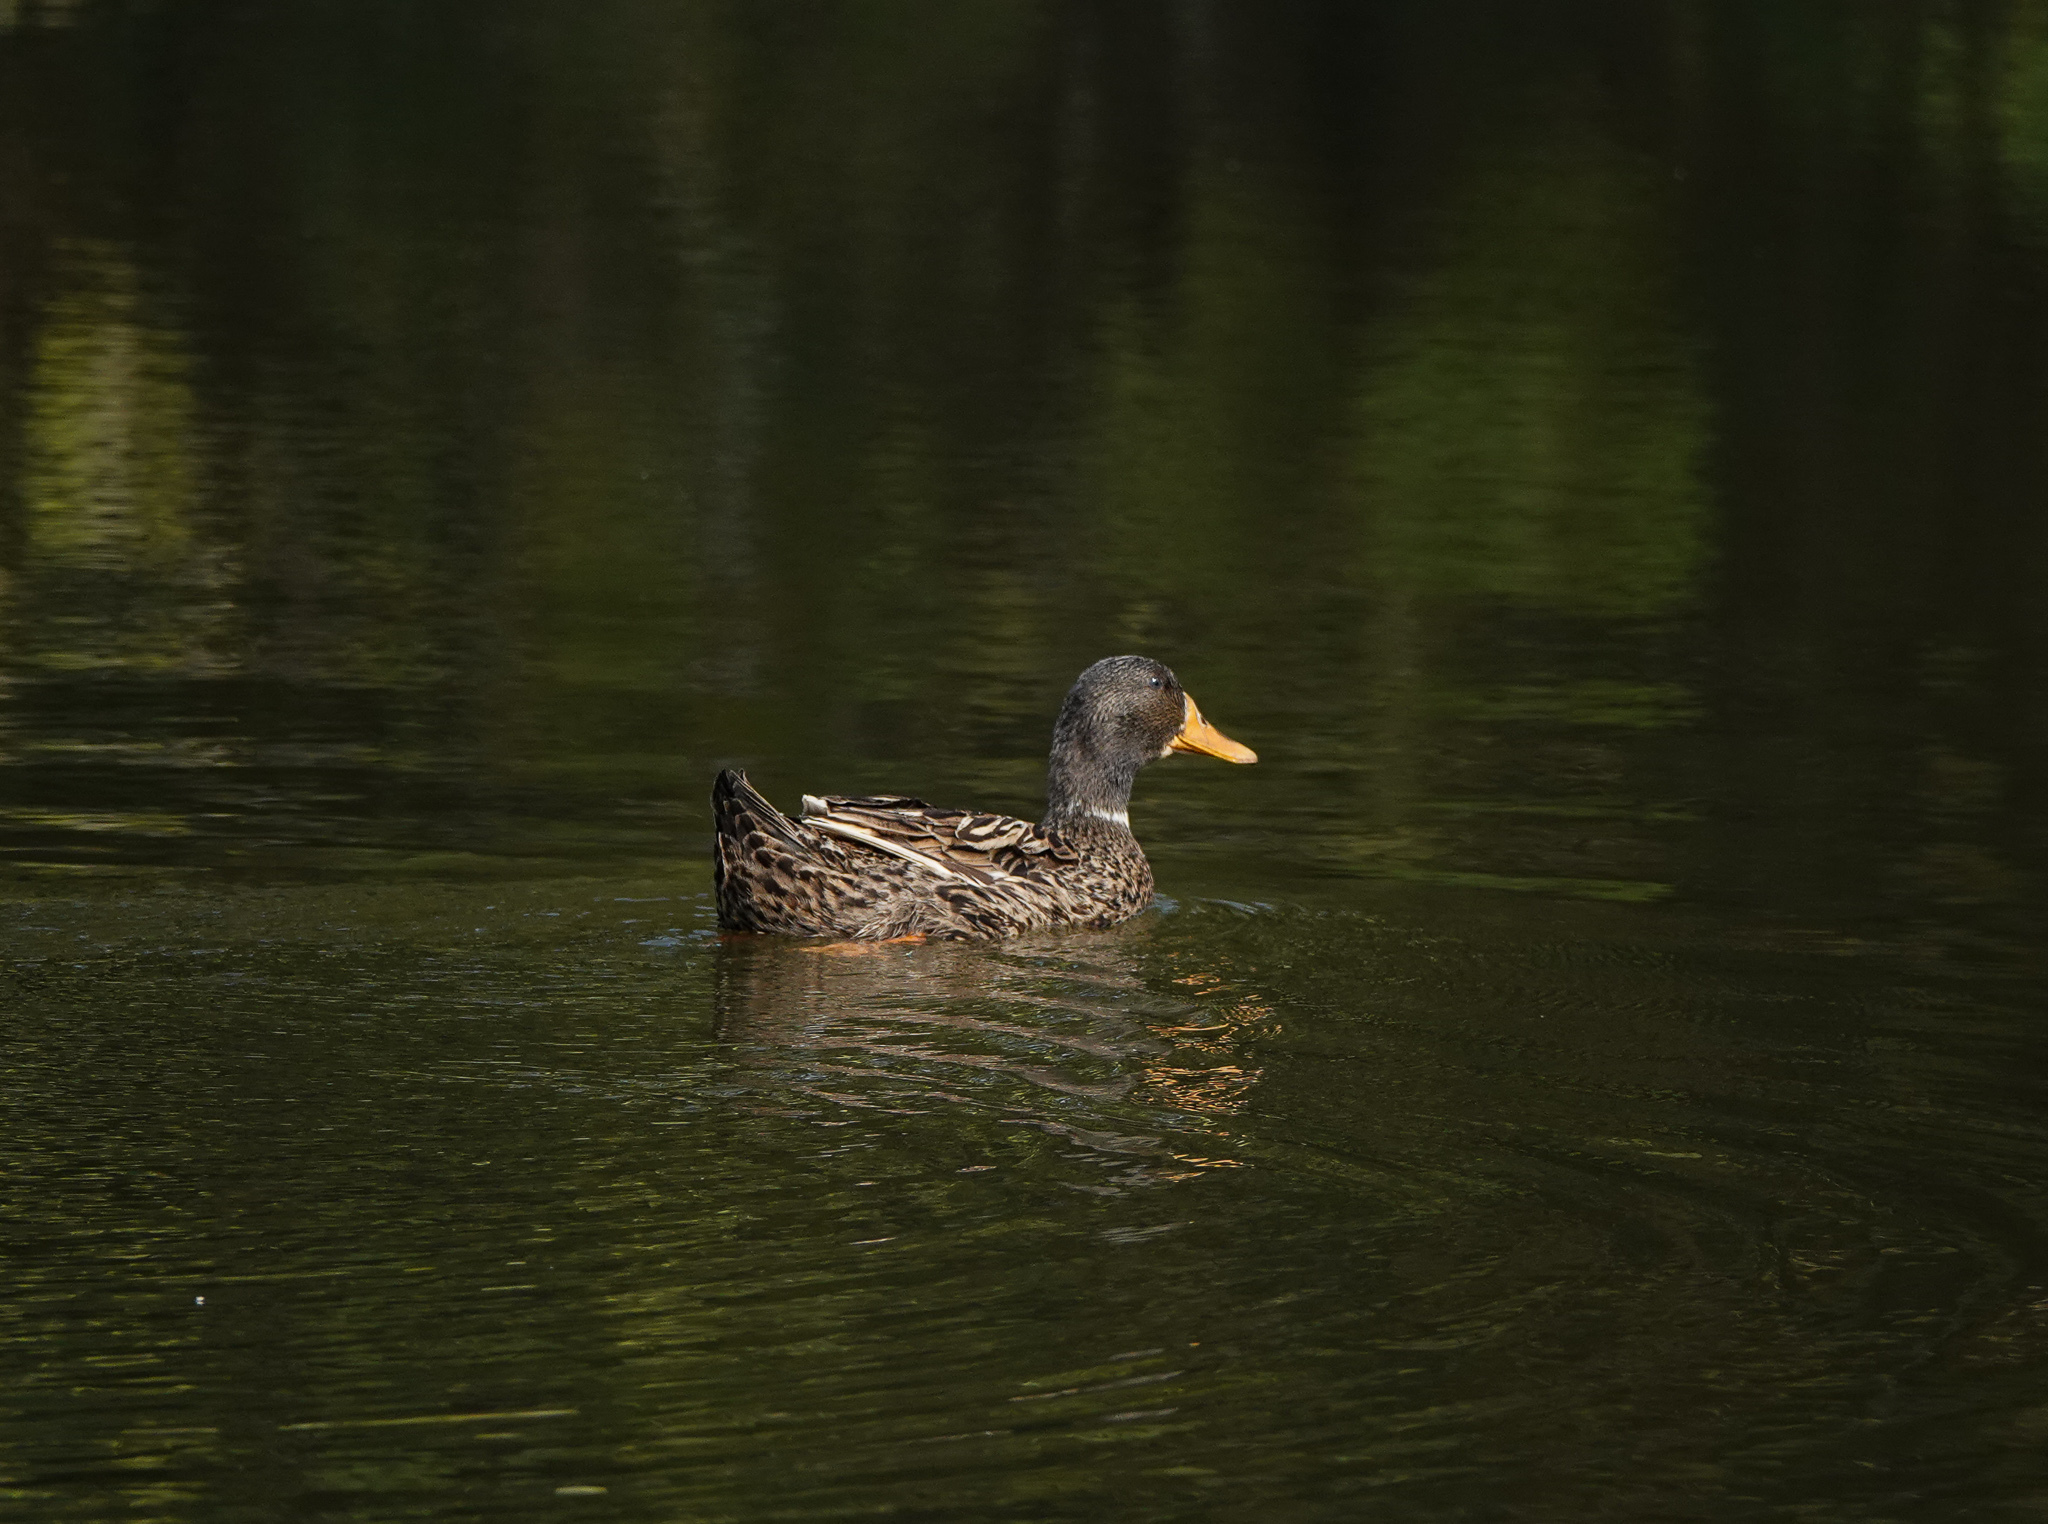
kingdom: Animalia
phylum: Chordata
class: Aves
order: Anseriformes
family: Anatidae
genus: Anas
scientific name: Anas platyrhynchos
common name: Mallard
